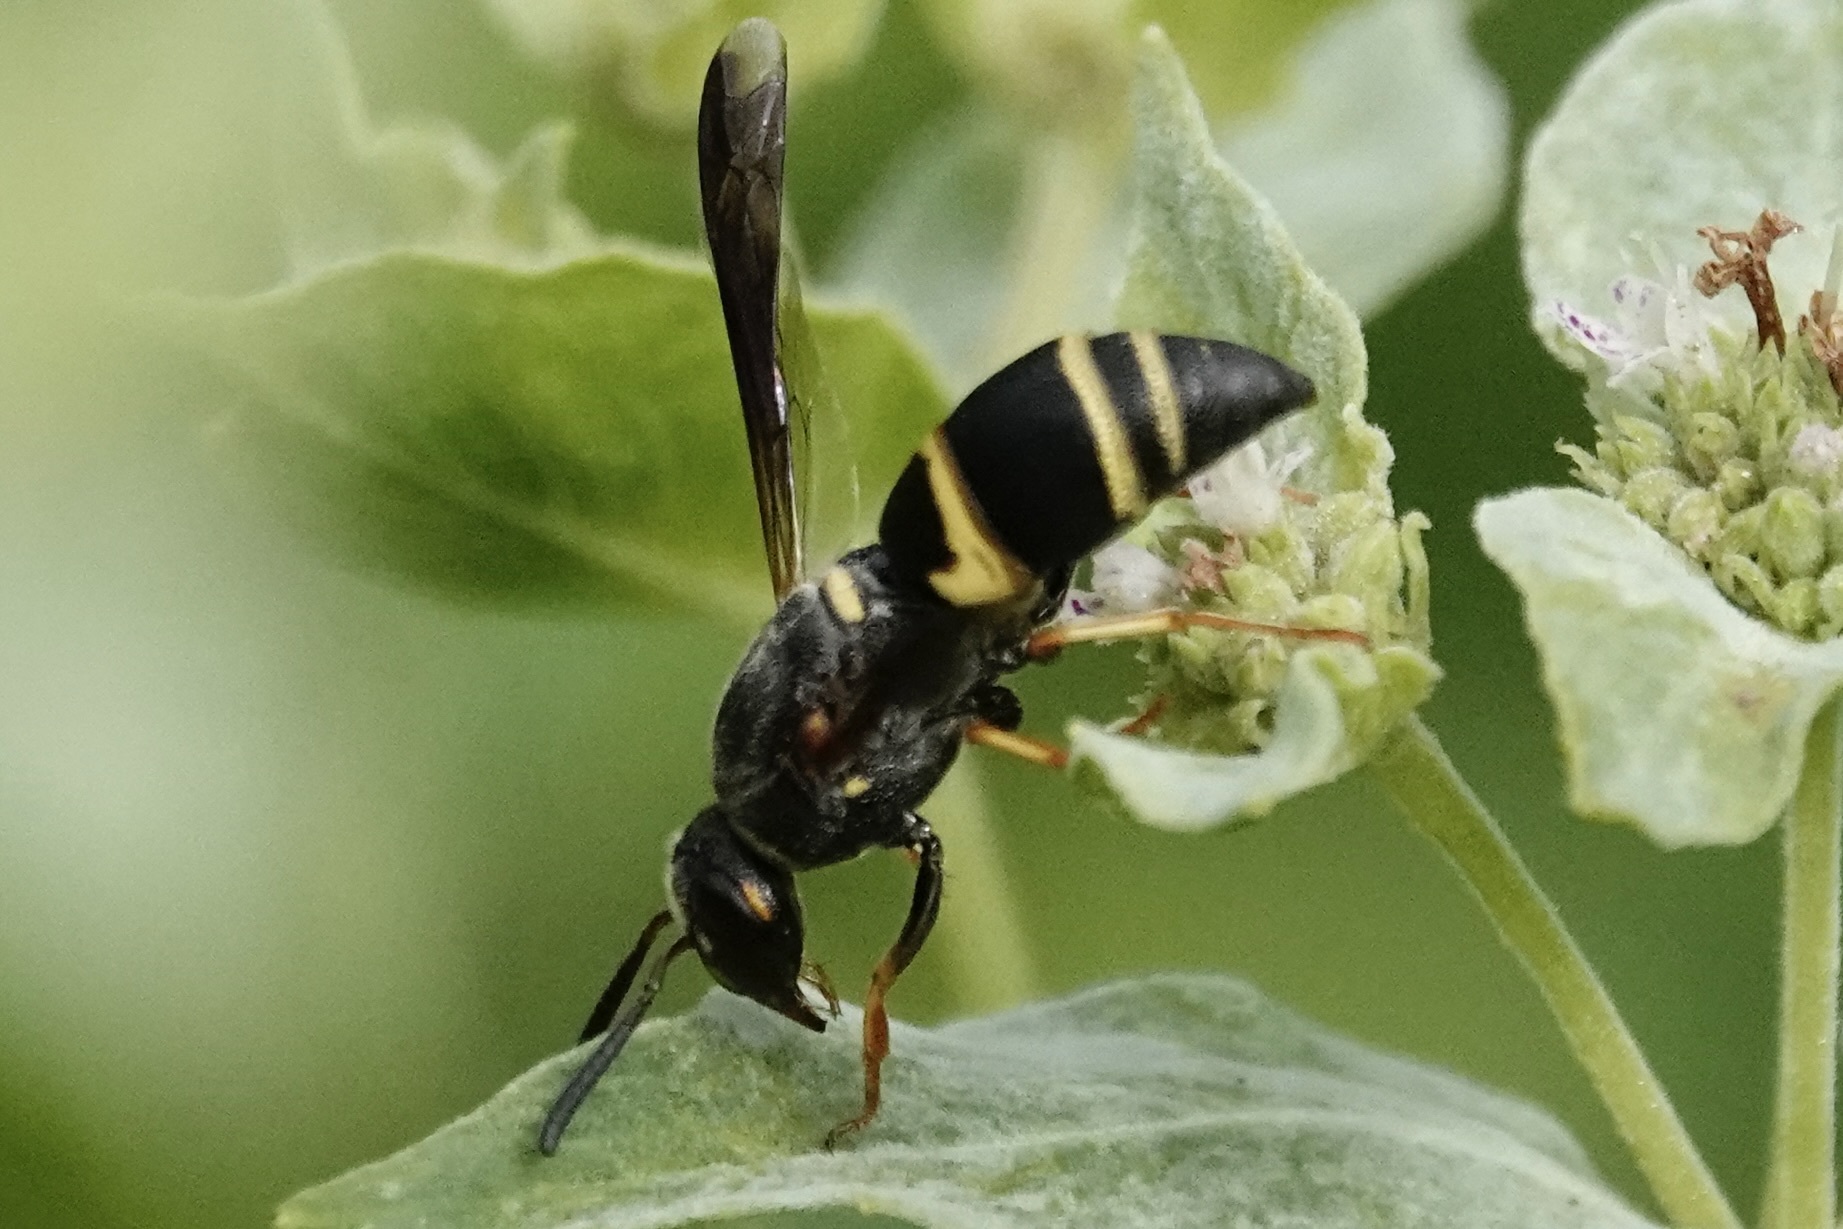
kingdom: Animalia
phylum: Arthropoda
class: Insecta
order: Hymenoptera
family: Eumenidae
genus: Euodynerus
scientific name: Euodynerus hidalgo
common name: Wasp
